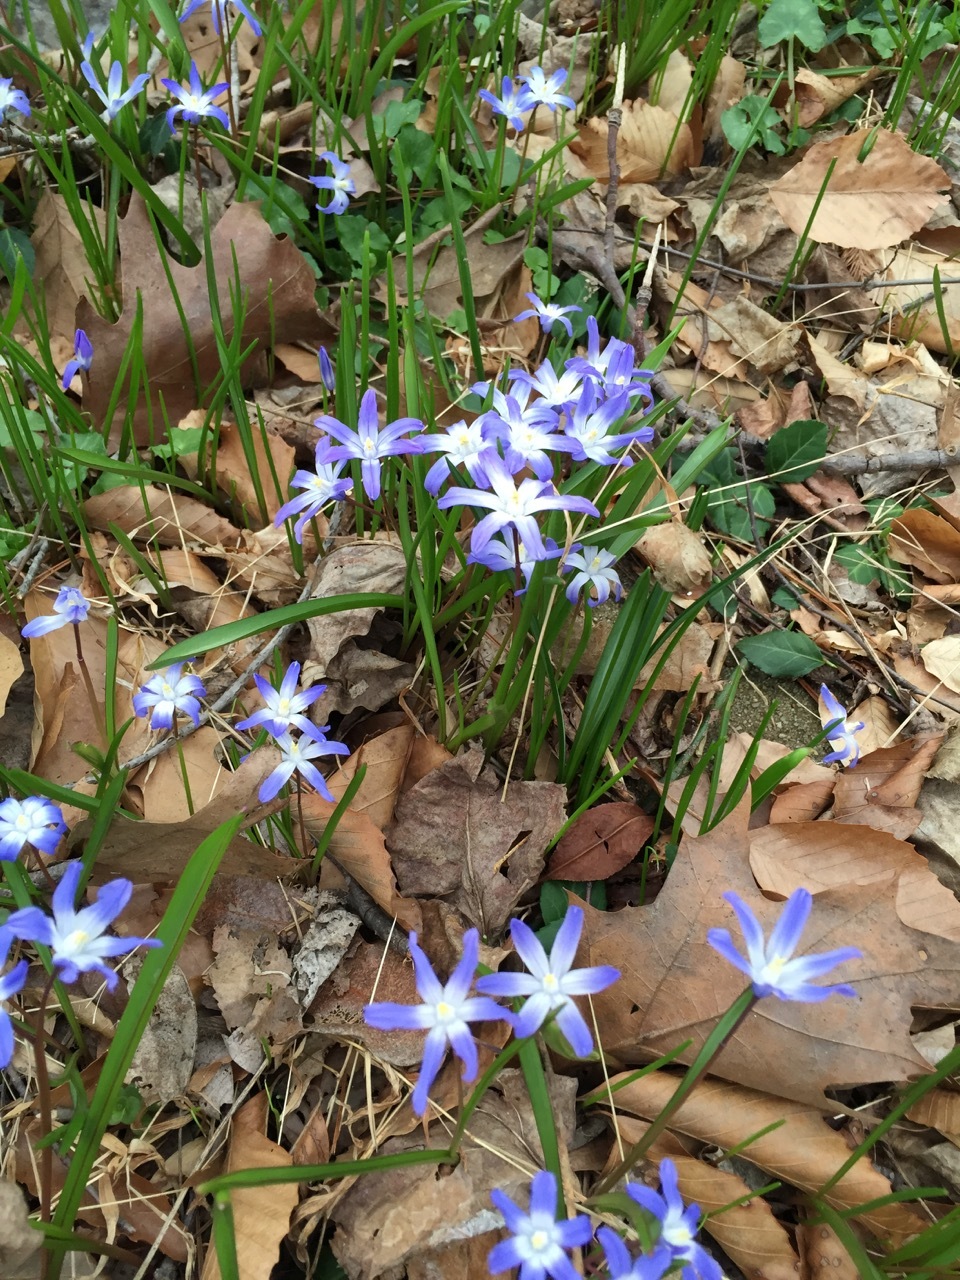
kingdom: Plantae
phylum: Tracheophyta
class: Liliopsida
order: Asparagales
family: Asparagaceae
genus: Scilla
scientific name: Scilla forbesii
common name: Glory-of-the-snow
